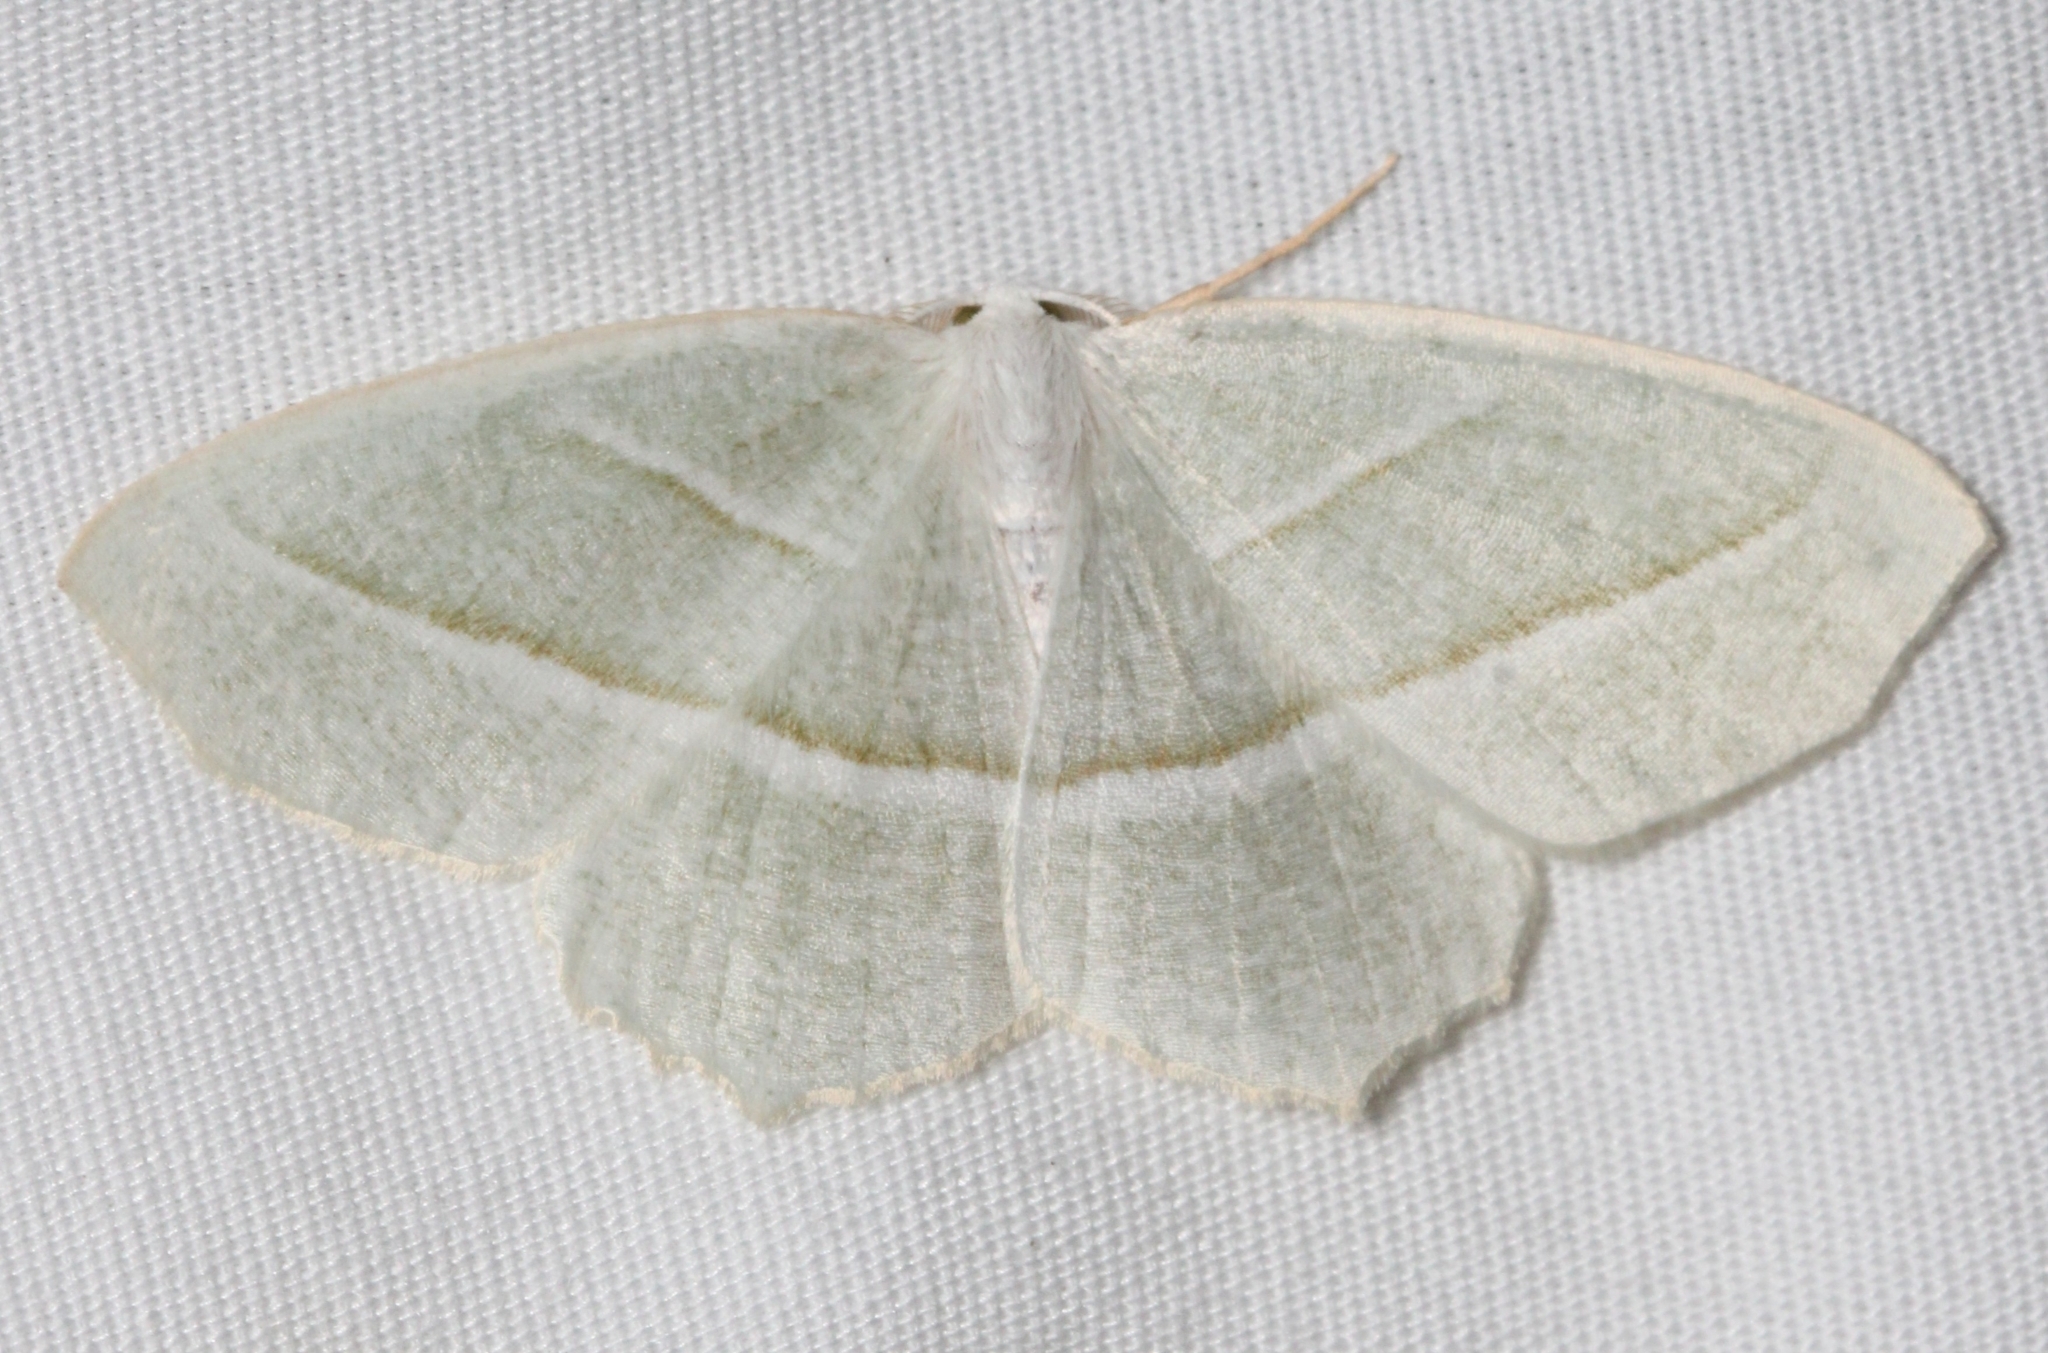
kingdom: Animalia
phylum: Arthropoda
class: Insecta
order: Lepidoptera
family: Geometridae
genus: Campaea
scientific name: Campaea perlata
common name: Fringed looper
